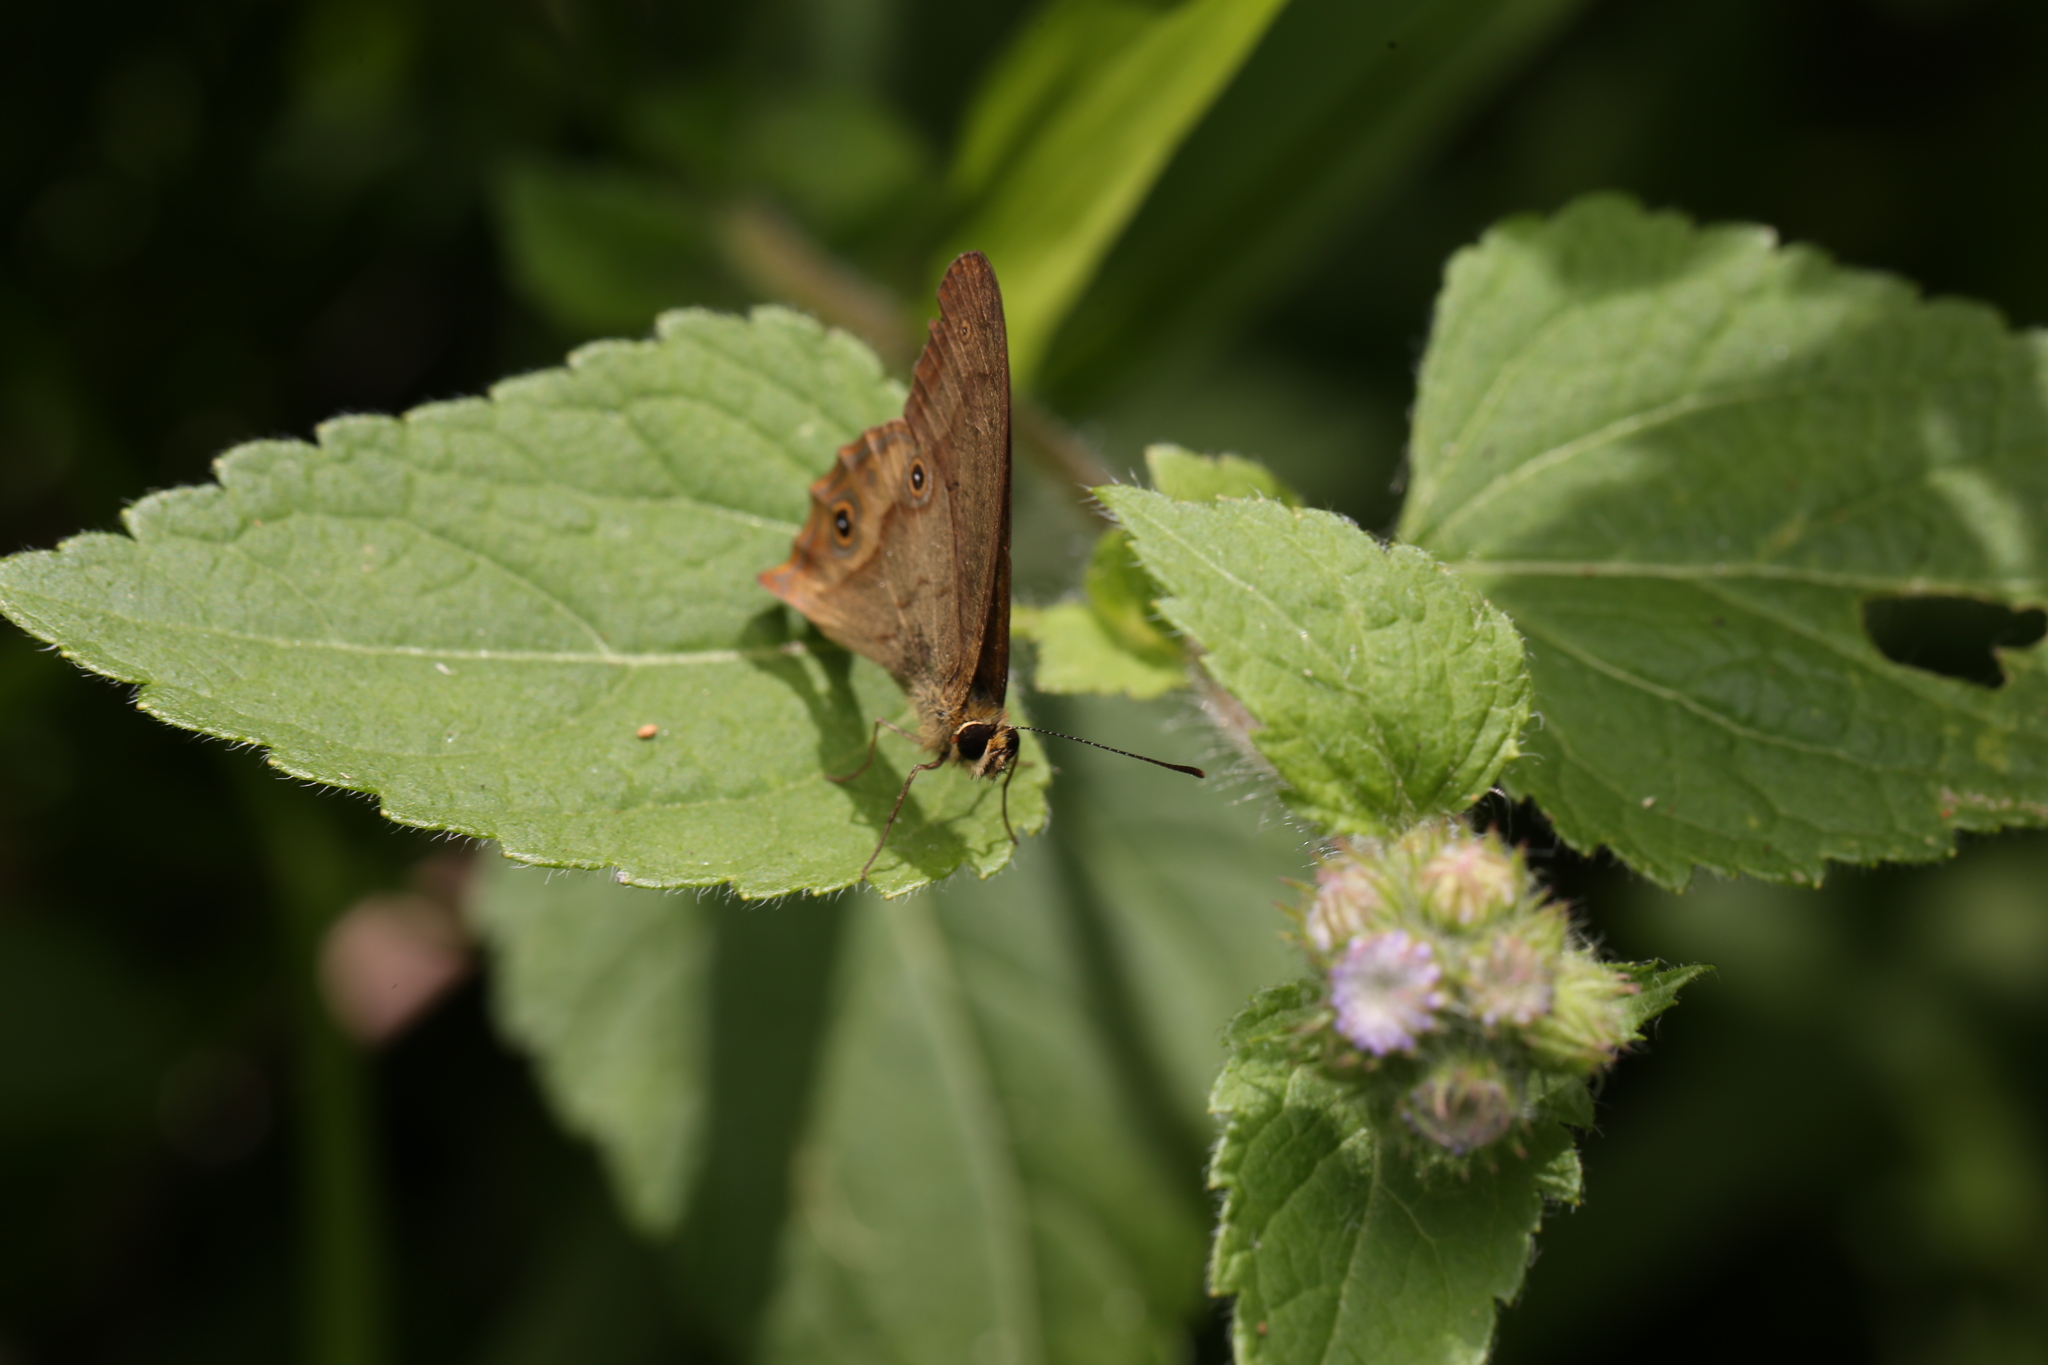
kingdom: Animalia
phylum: Arthropoda
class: Insecta
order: Lepidoptera
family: Nymphalidae
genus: Hypocysta
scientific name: Hypocysta metirius
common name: Brown ringlet
